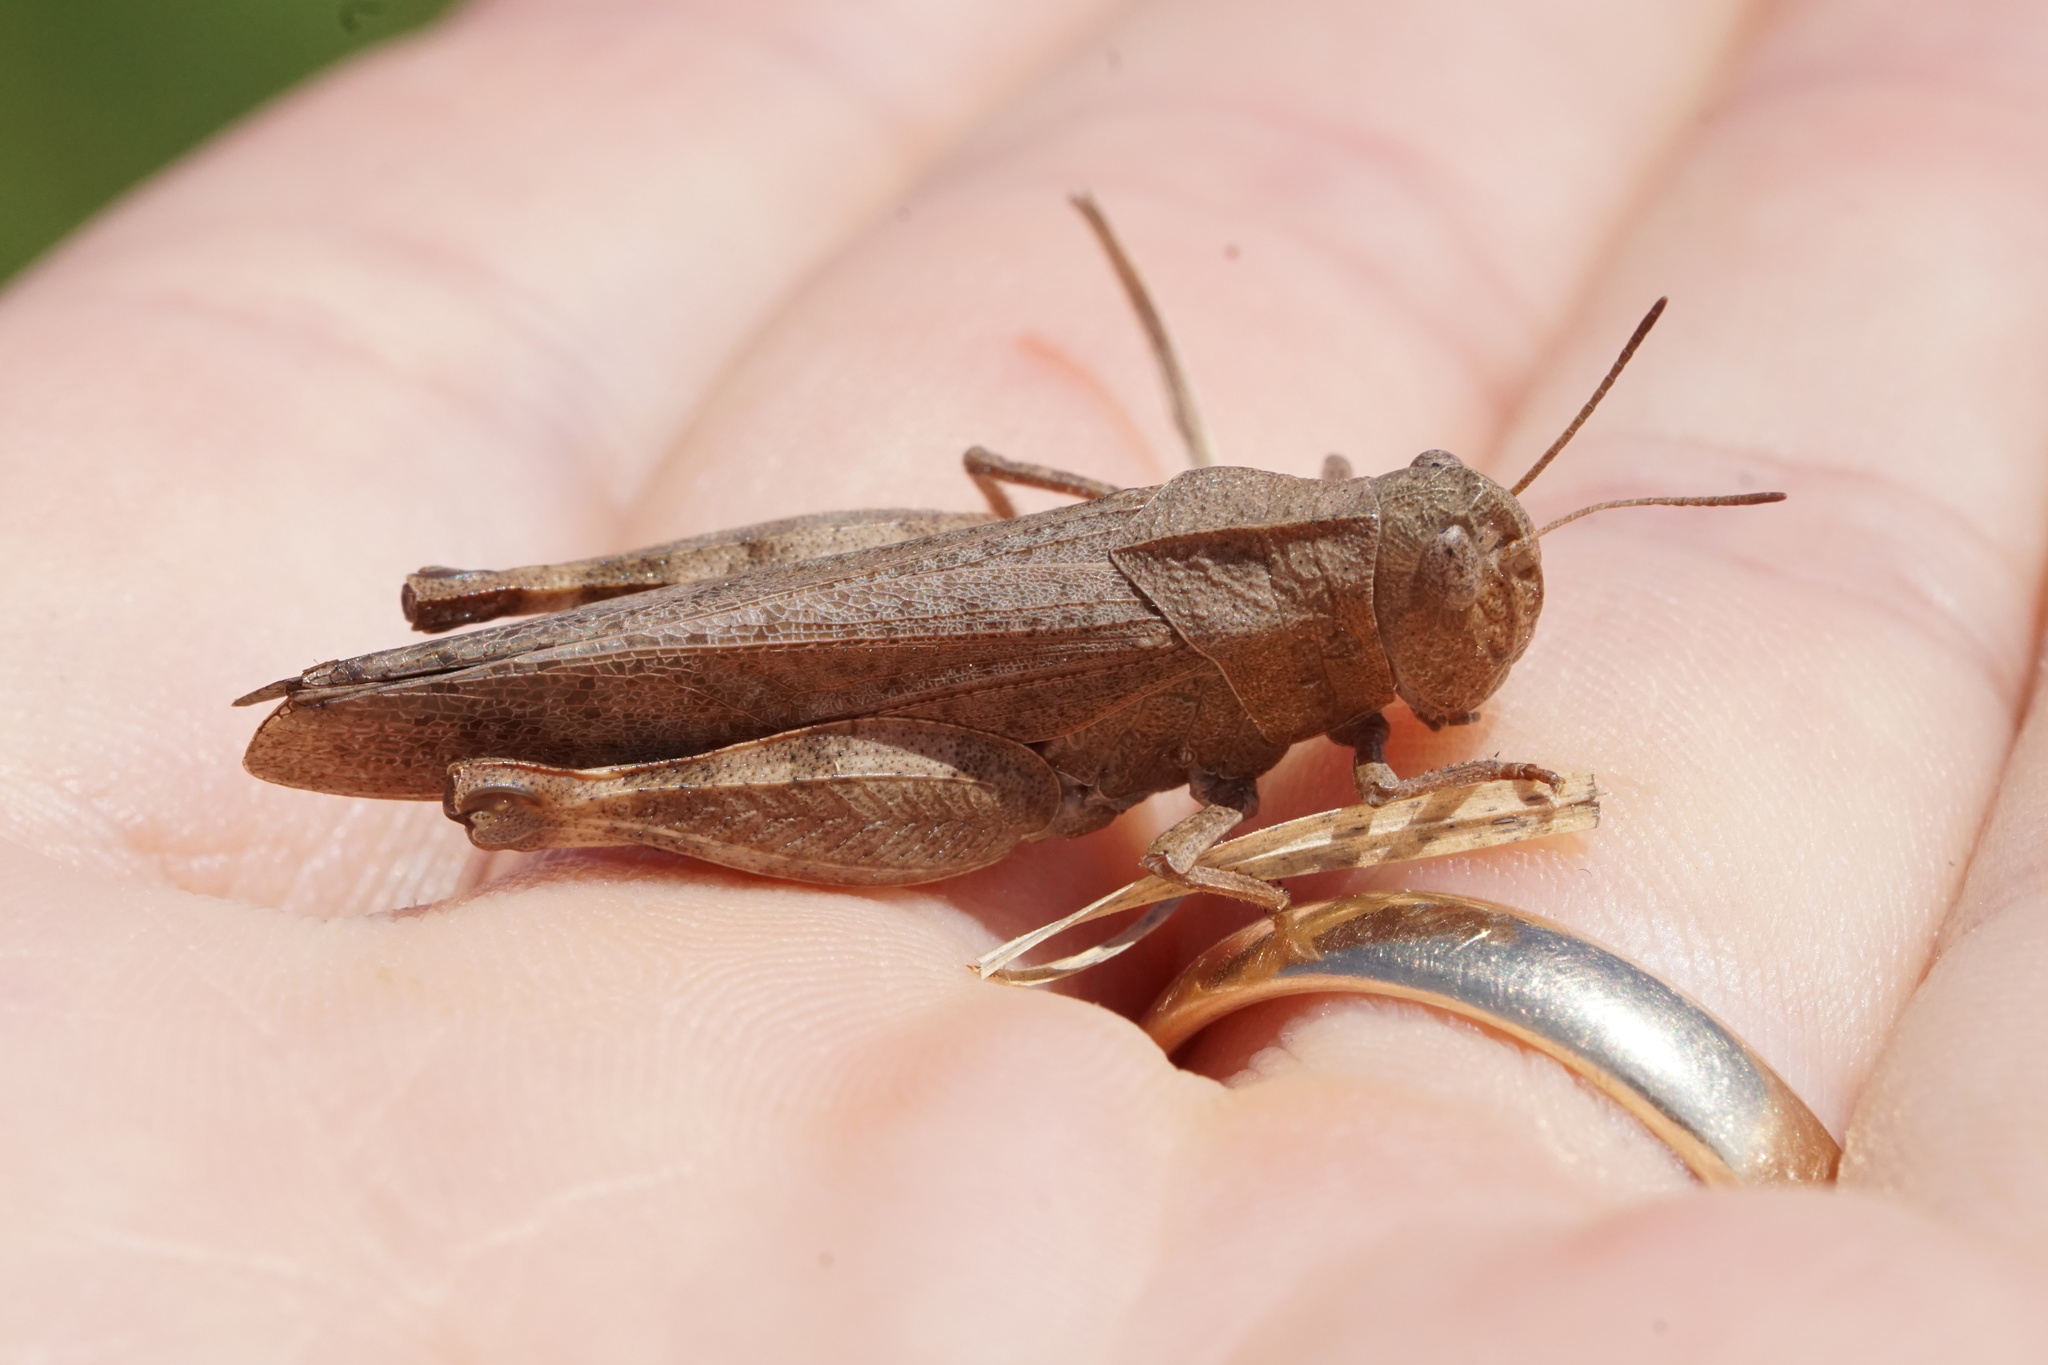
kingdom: Animalia
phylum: Arthropoda
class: Insecta
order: Orthoptera
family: Acrididae
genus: Arphia
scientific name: Arphia sulphurea
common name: Spring yellow-winged locust
